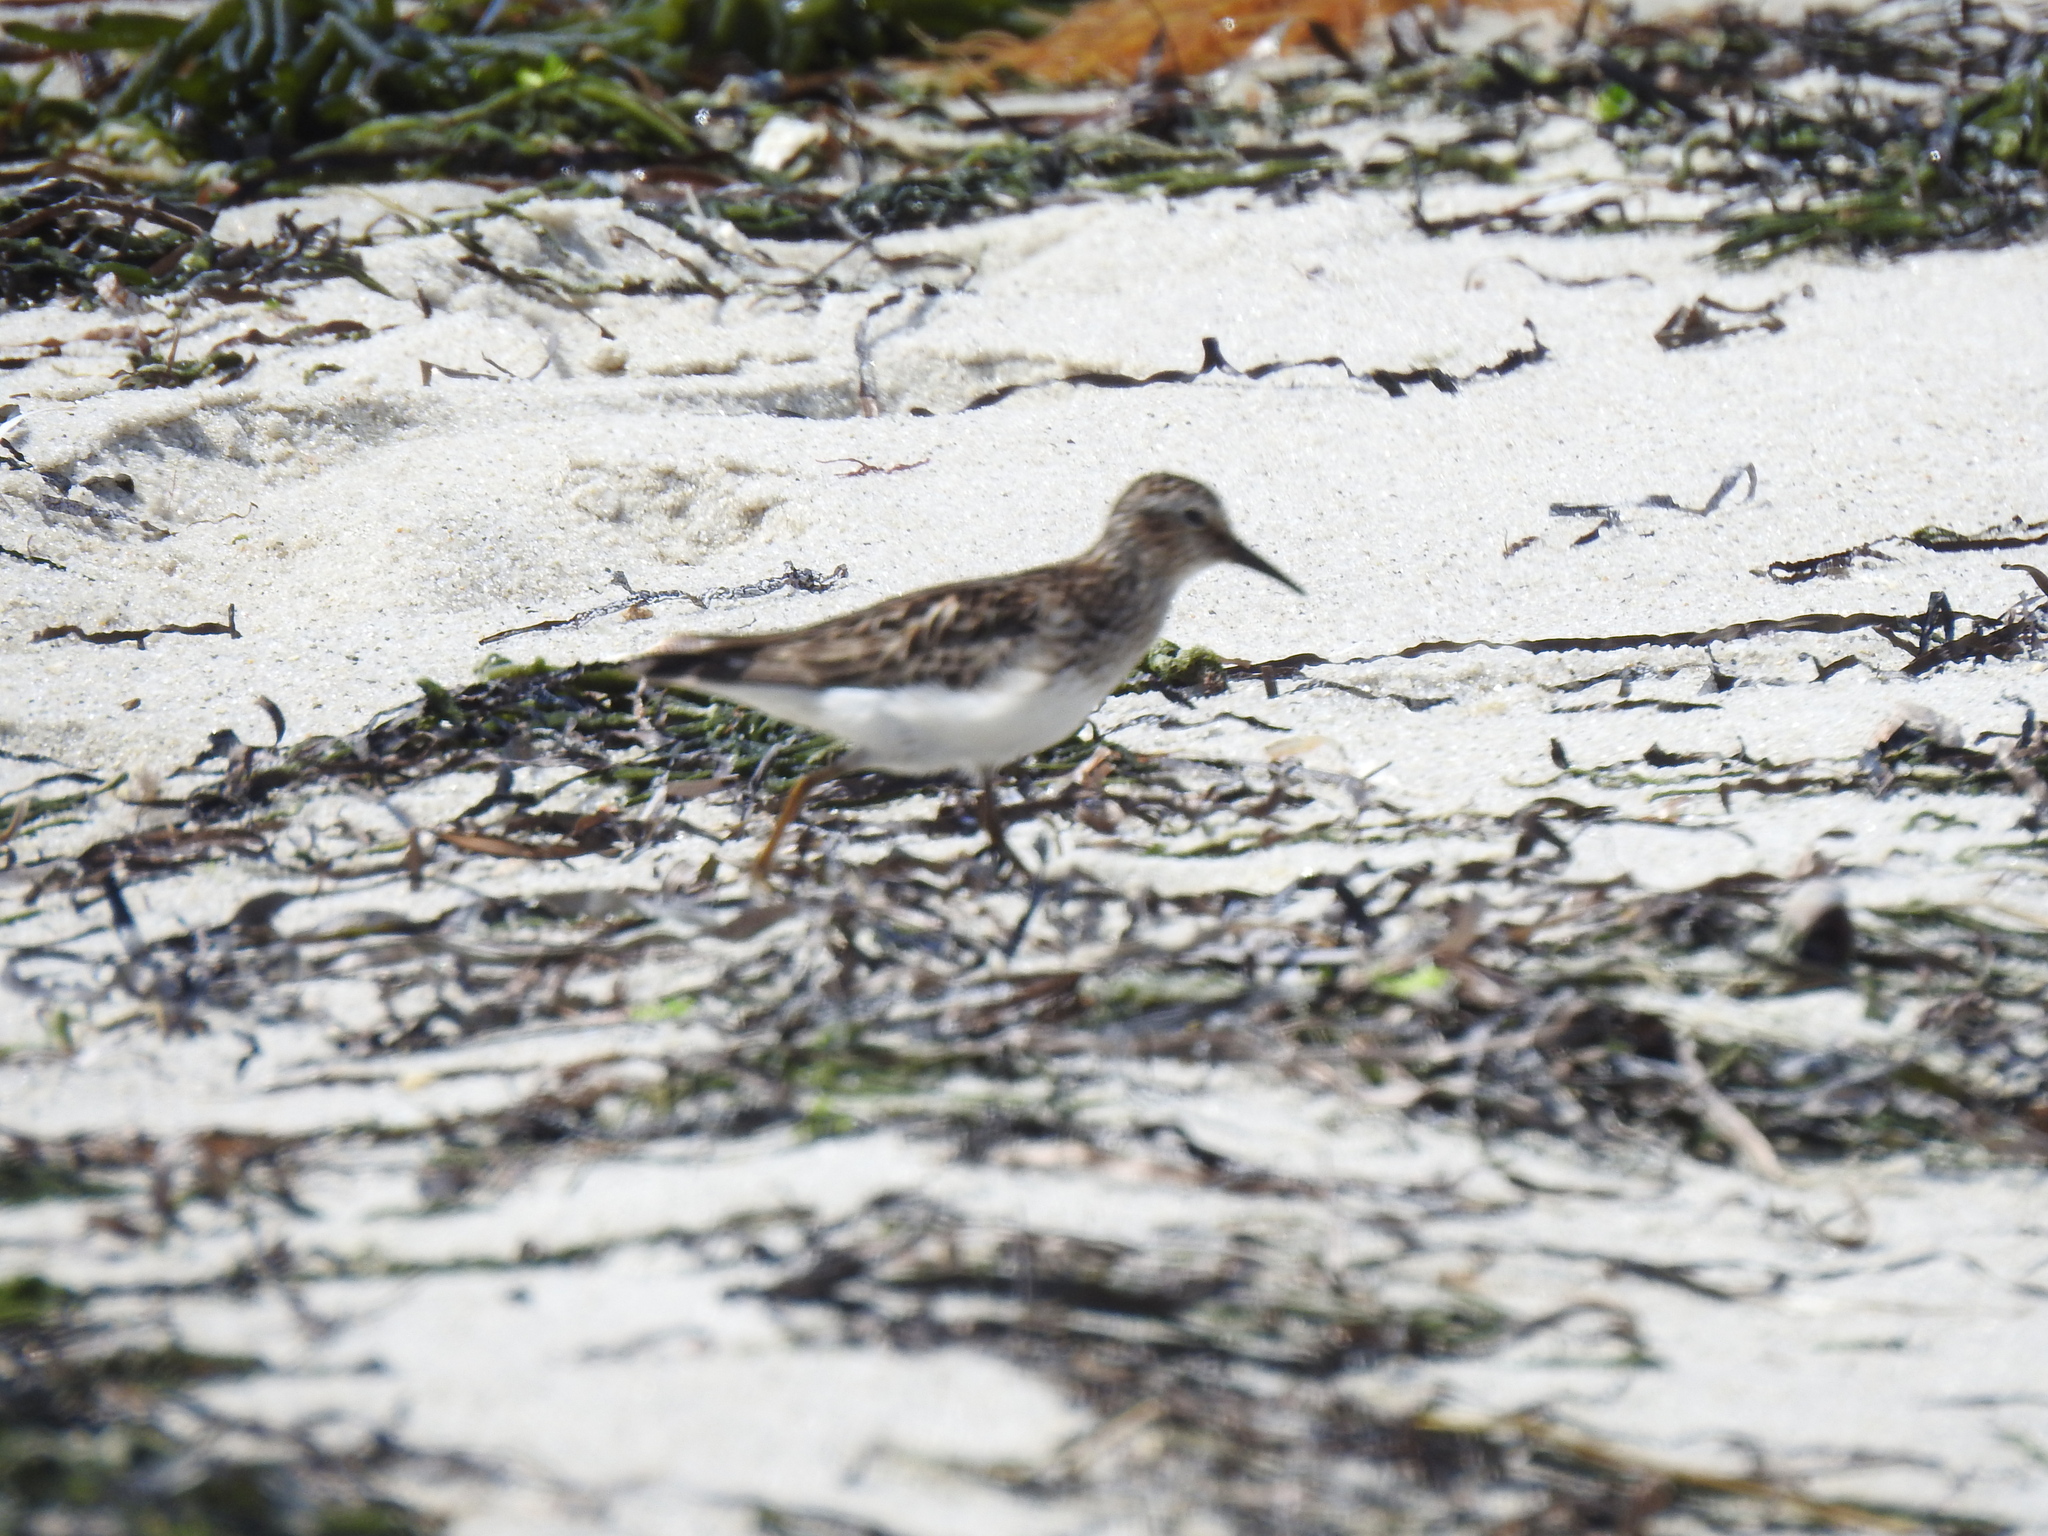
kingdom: Animalia
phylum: Chordata
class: Aves
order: Charadriiformes
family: Scolopacidae
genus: Calidris
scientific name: Calidris minutilla
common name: Least sandpiper
